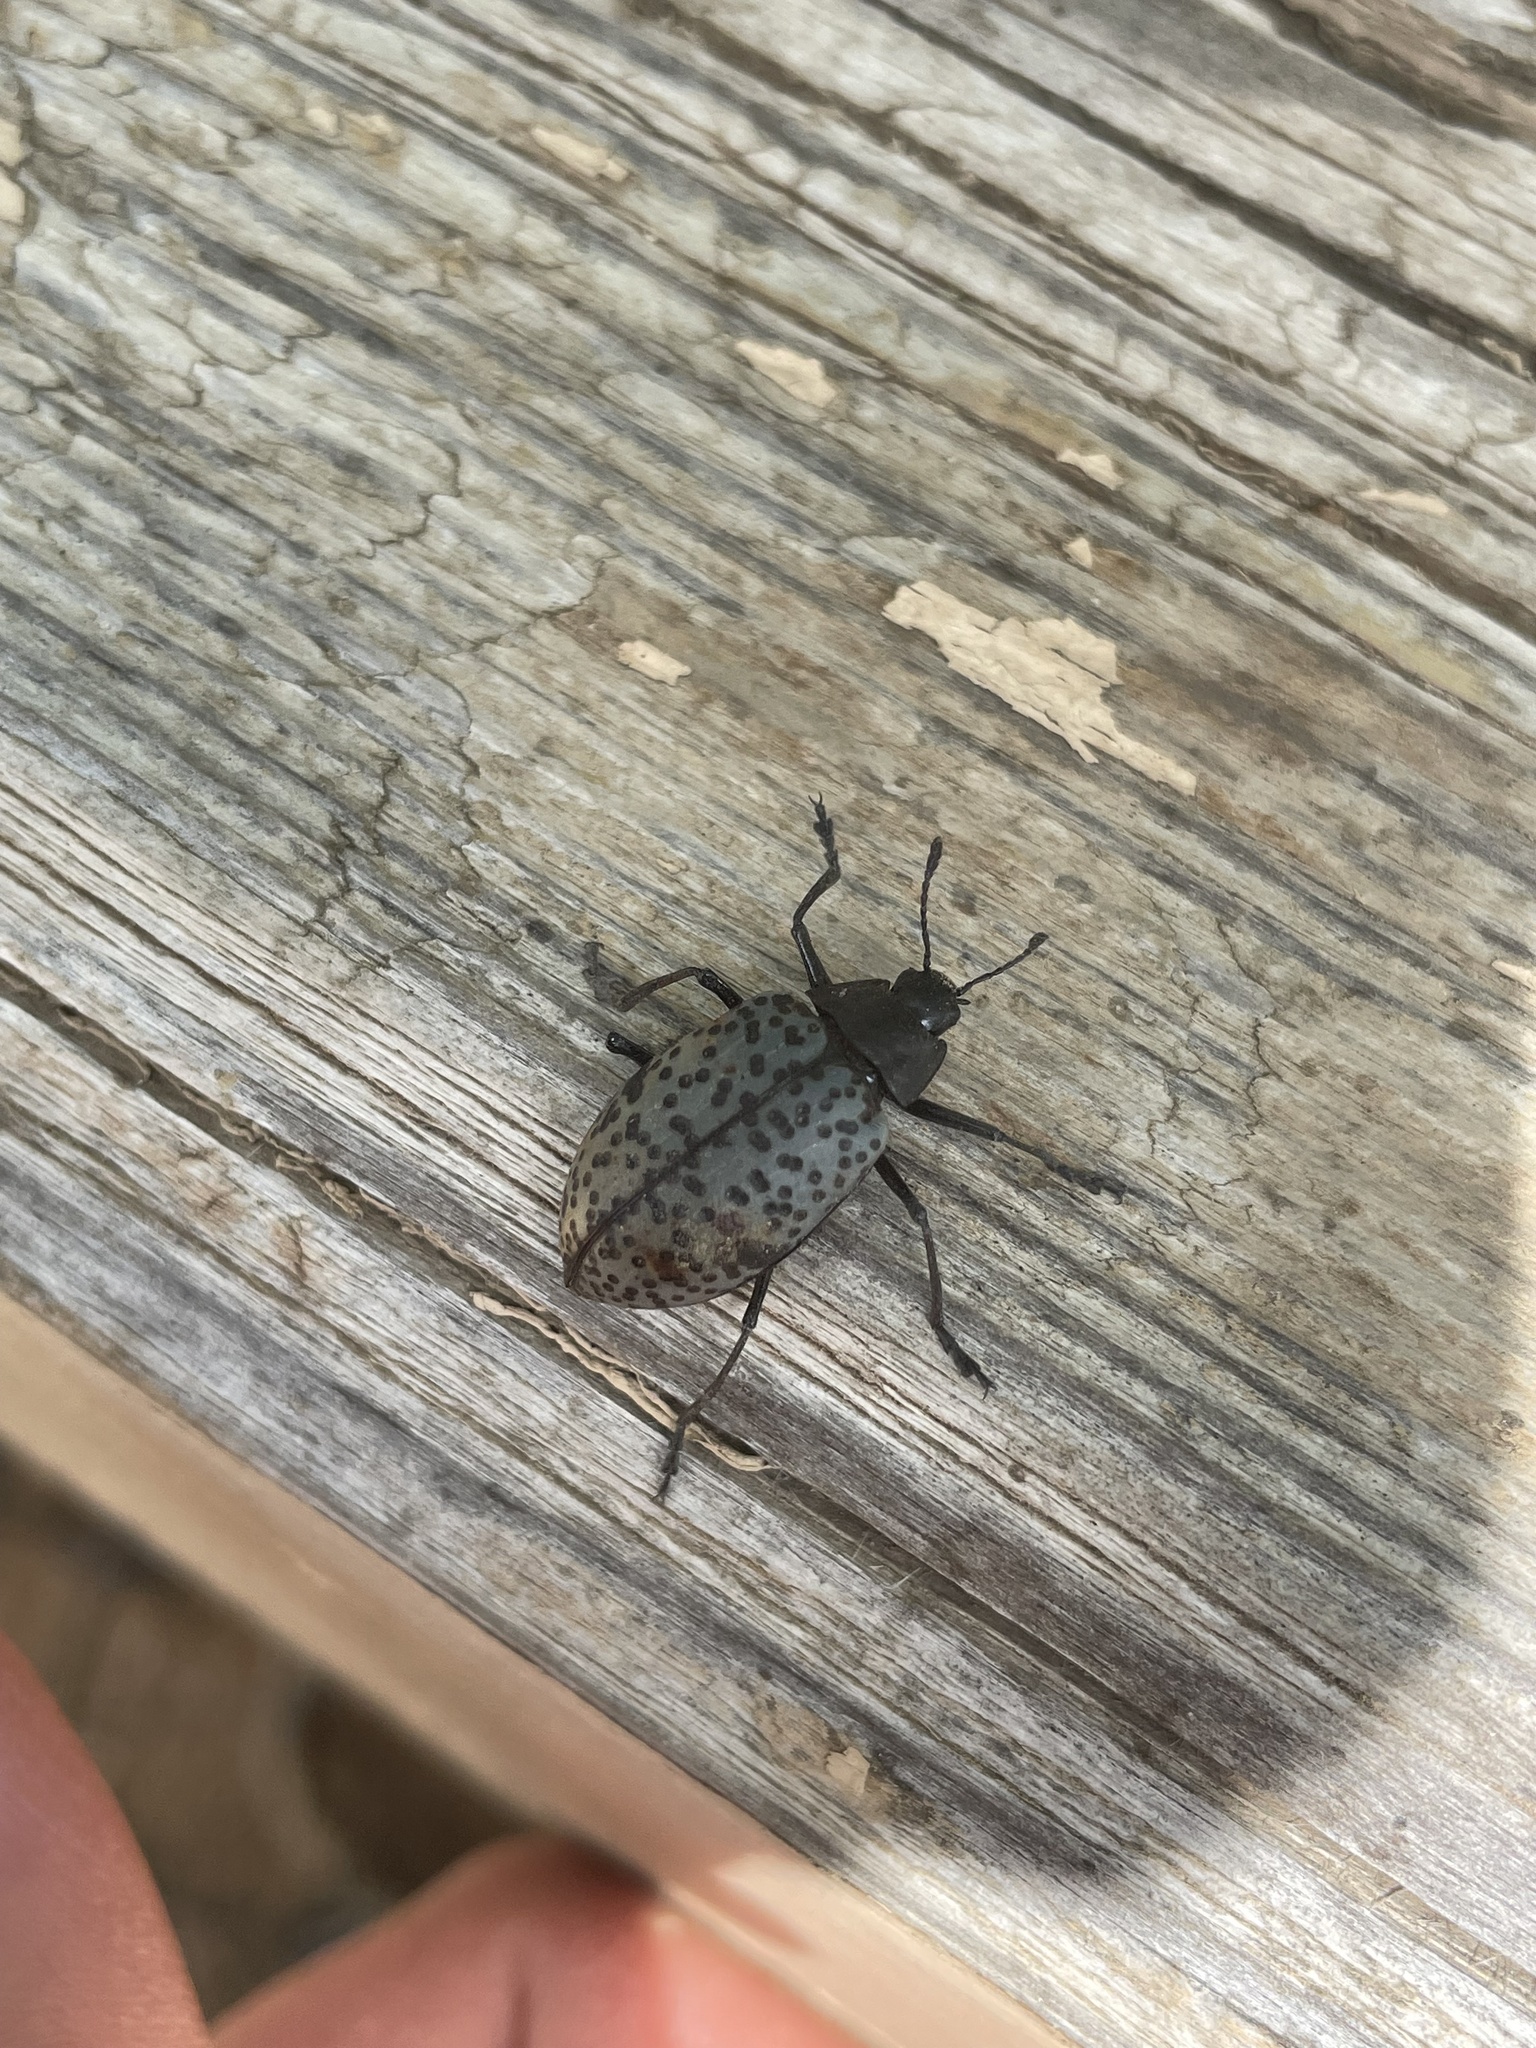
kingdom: Animalia
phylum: Arthropoda
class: Insecta
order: Coleoptera
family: Erotylidae
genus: Gibbifer
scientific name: Gibbifer californicus
